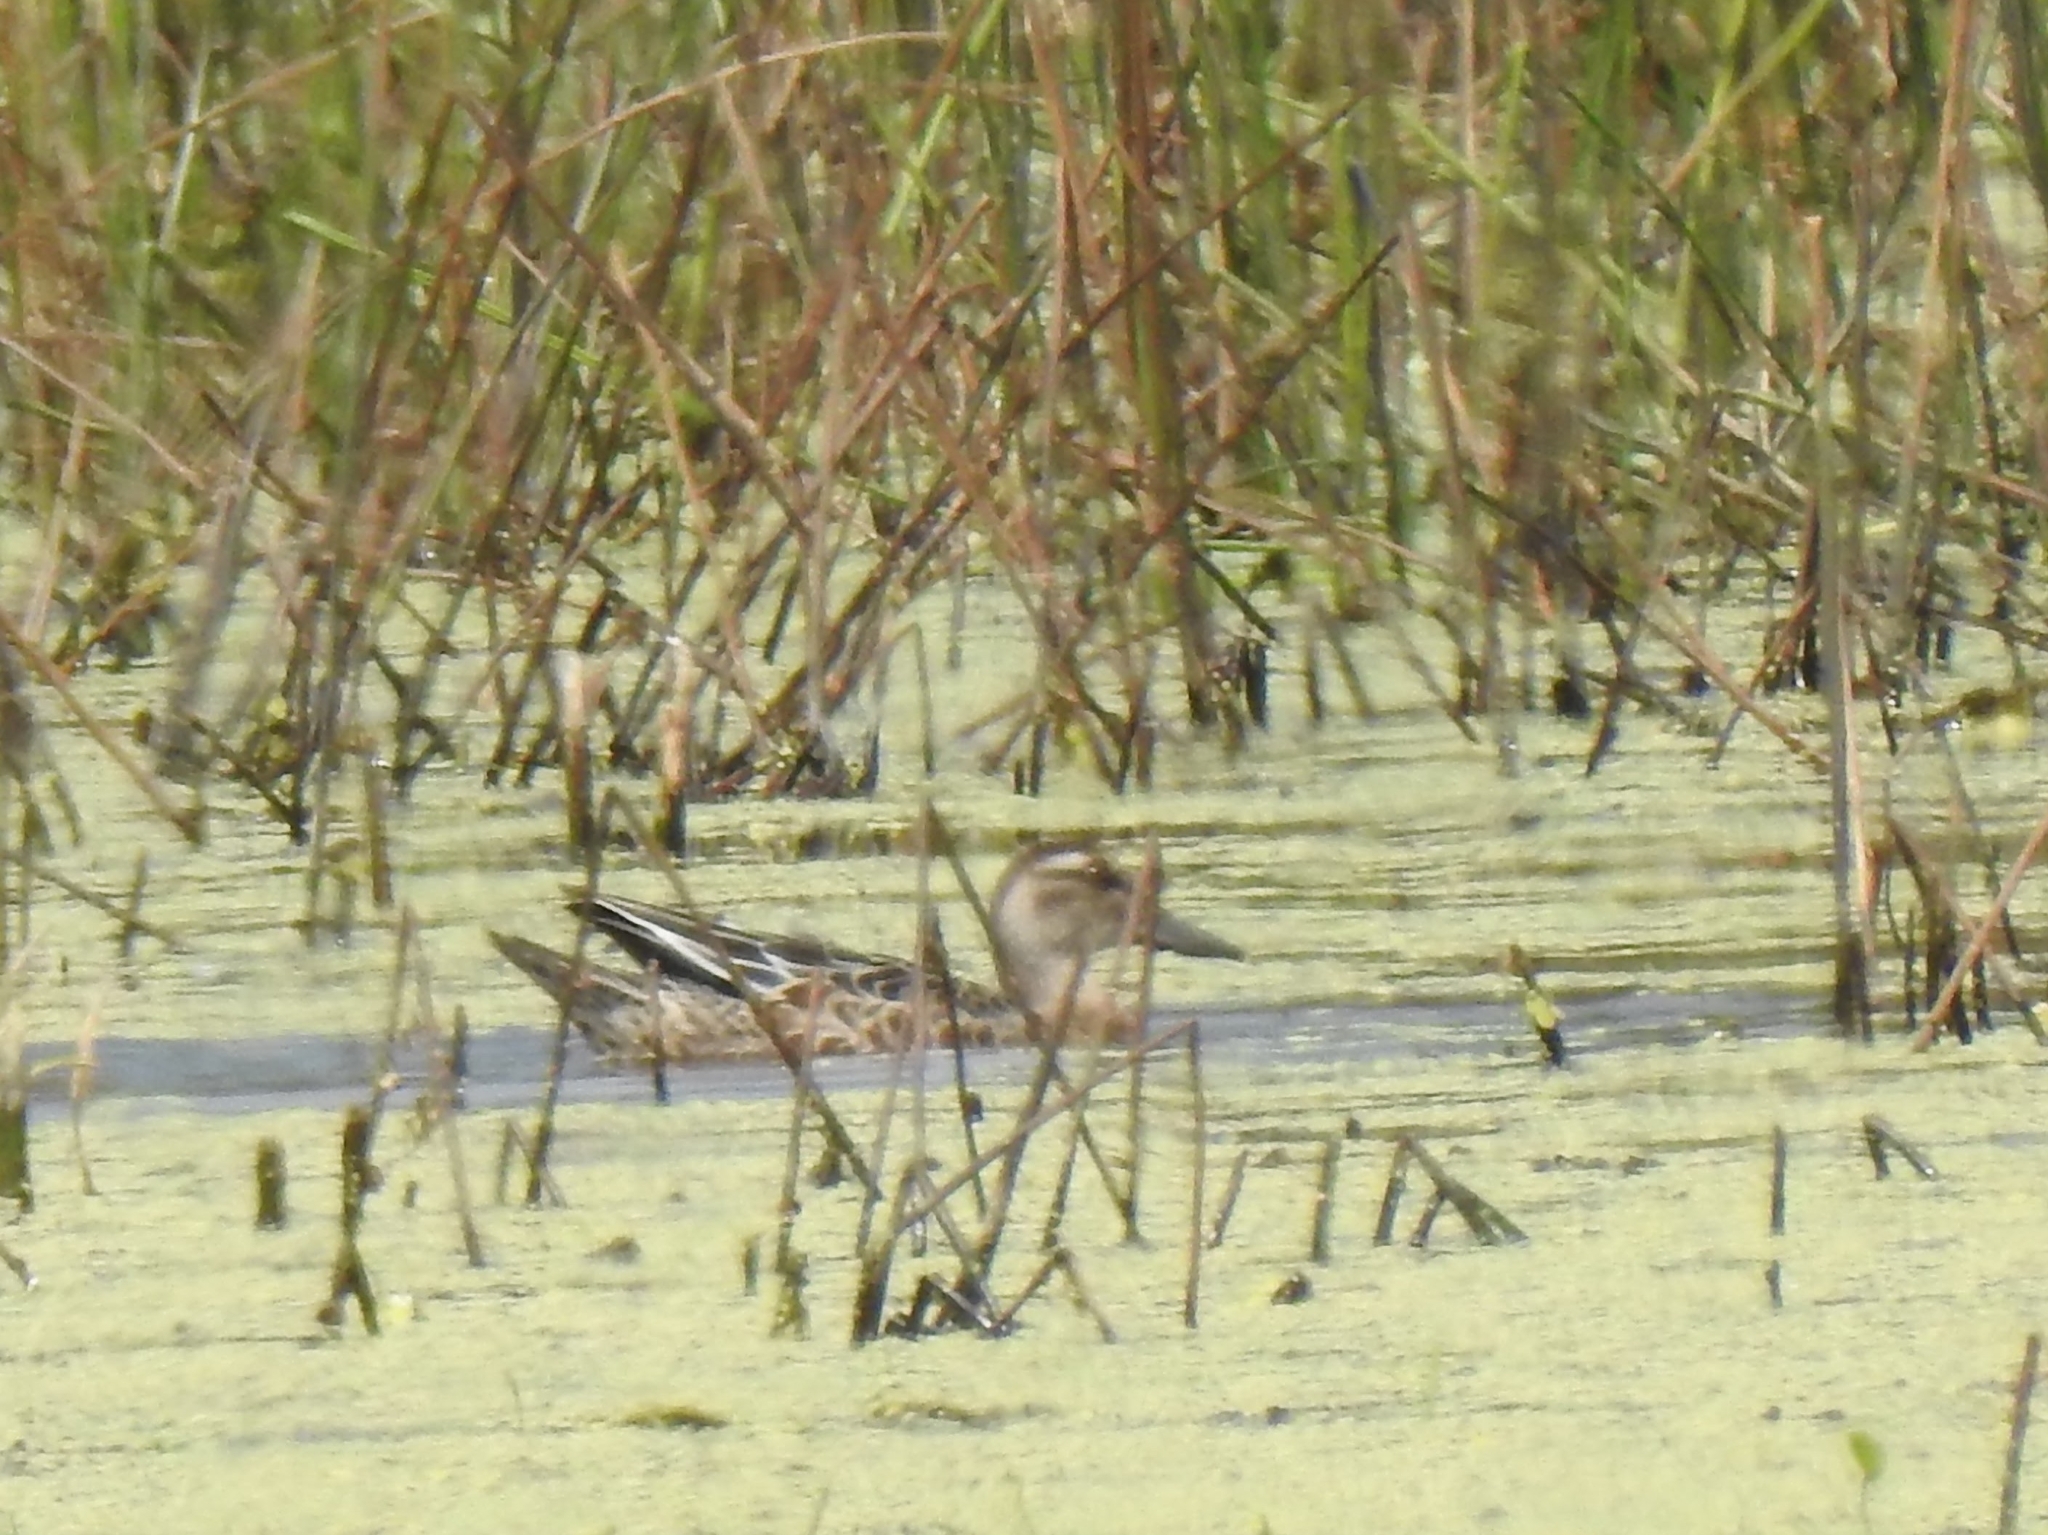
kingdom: Animalia
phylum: Chordata
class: Aves
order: Anseriformes
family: Anatidae
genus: Spatula
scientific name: Spatula querquedula
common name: Garganey
